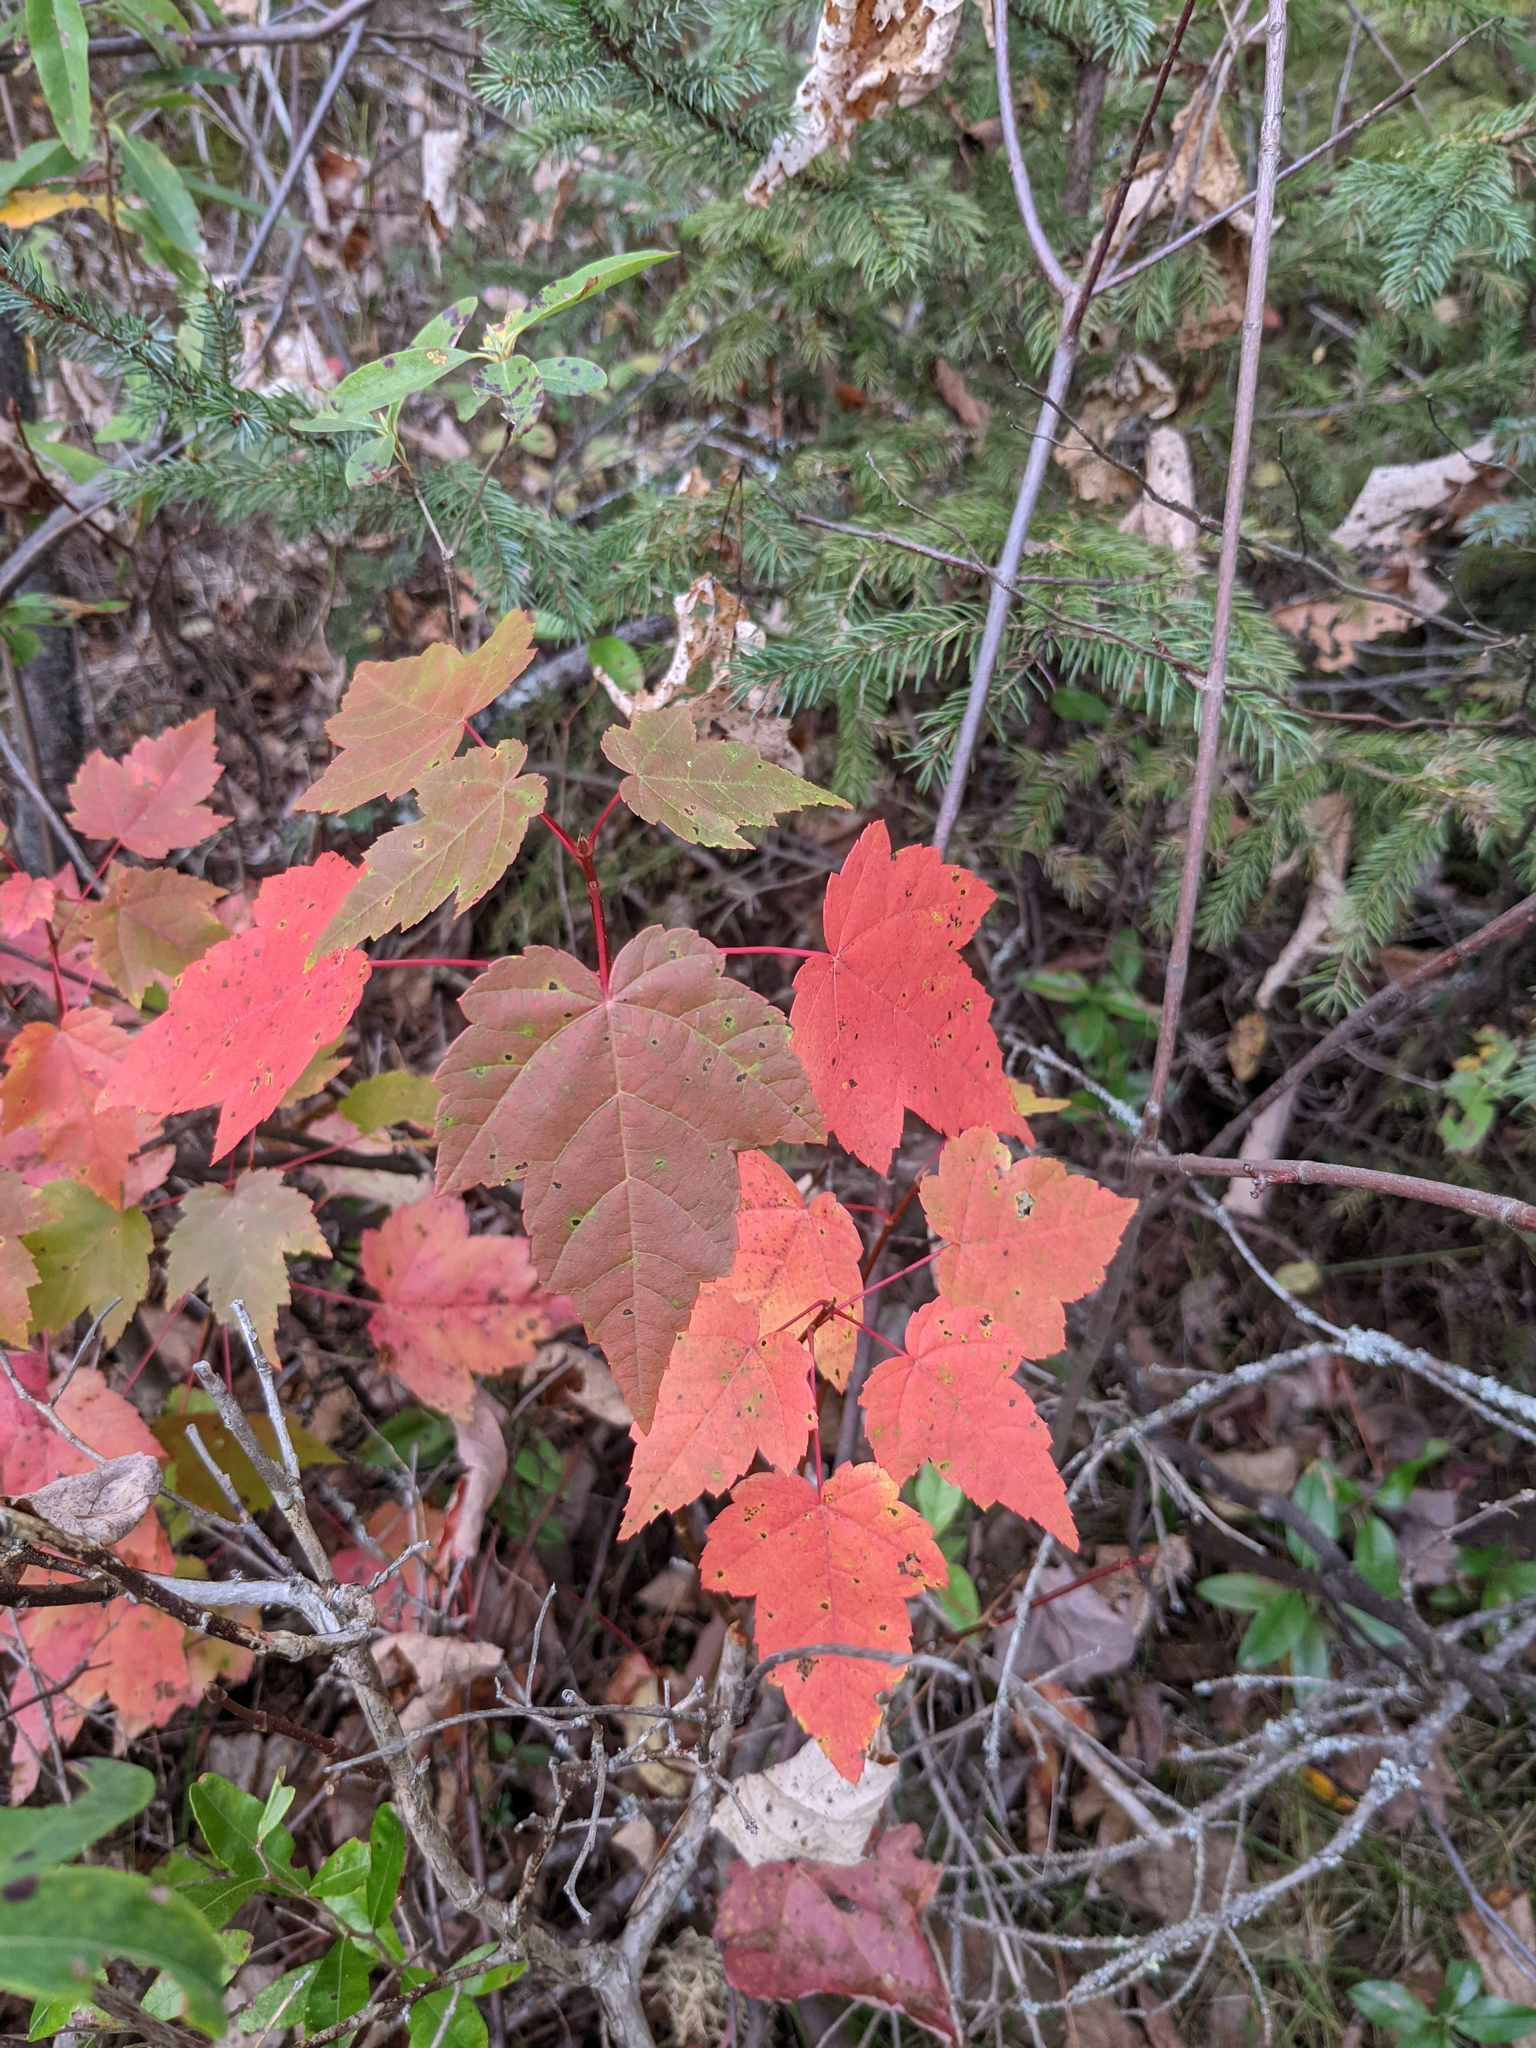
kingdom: Plantae
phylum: Tracheophyta
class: Magnoliopsida
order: Sapindales
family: Sapindaceae
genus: Acer
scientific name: Acer rubrum
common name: Red maple
